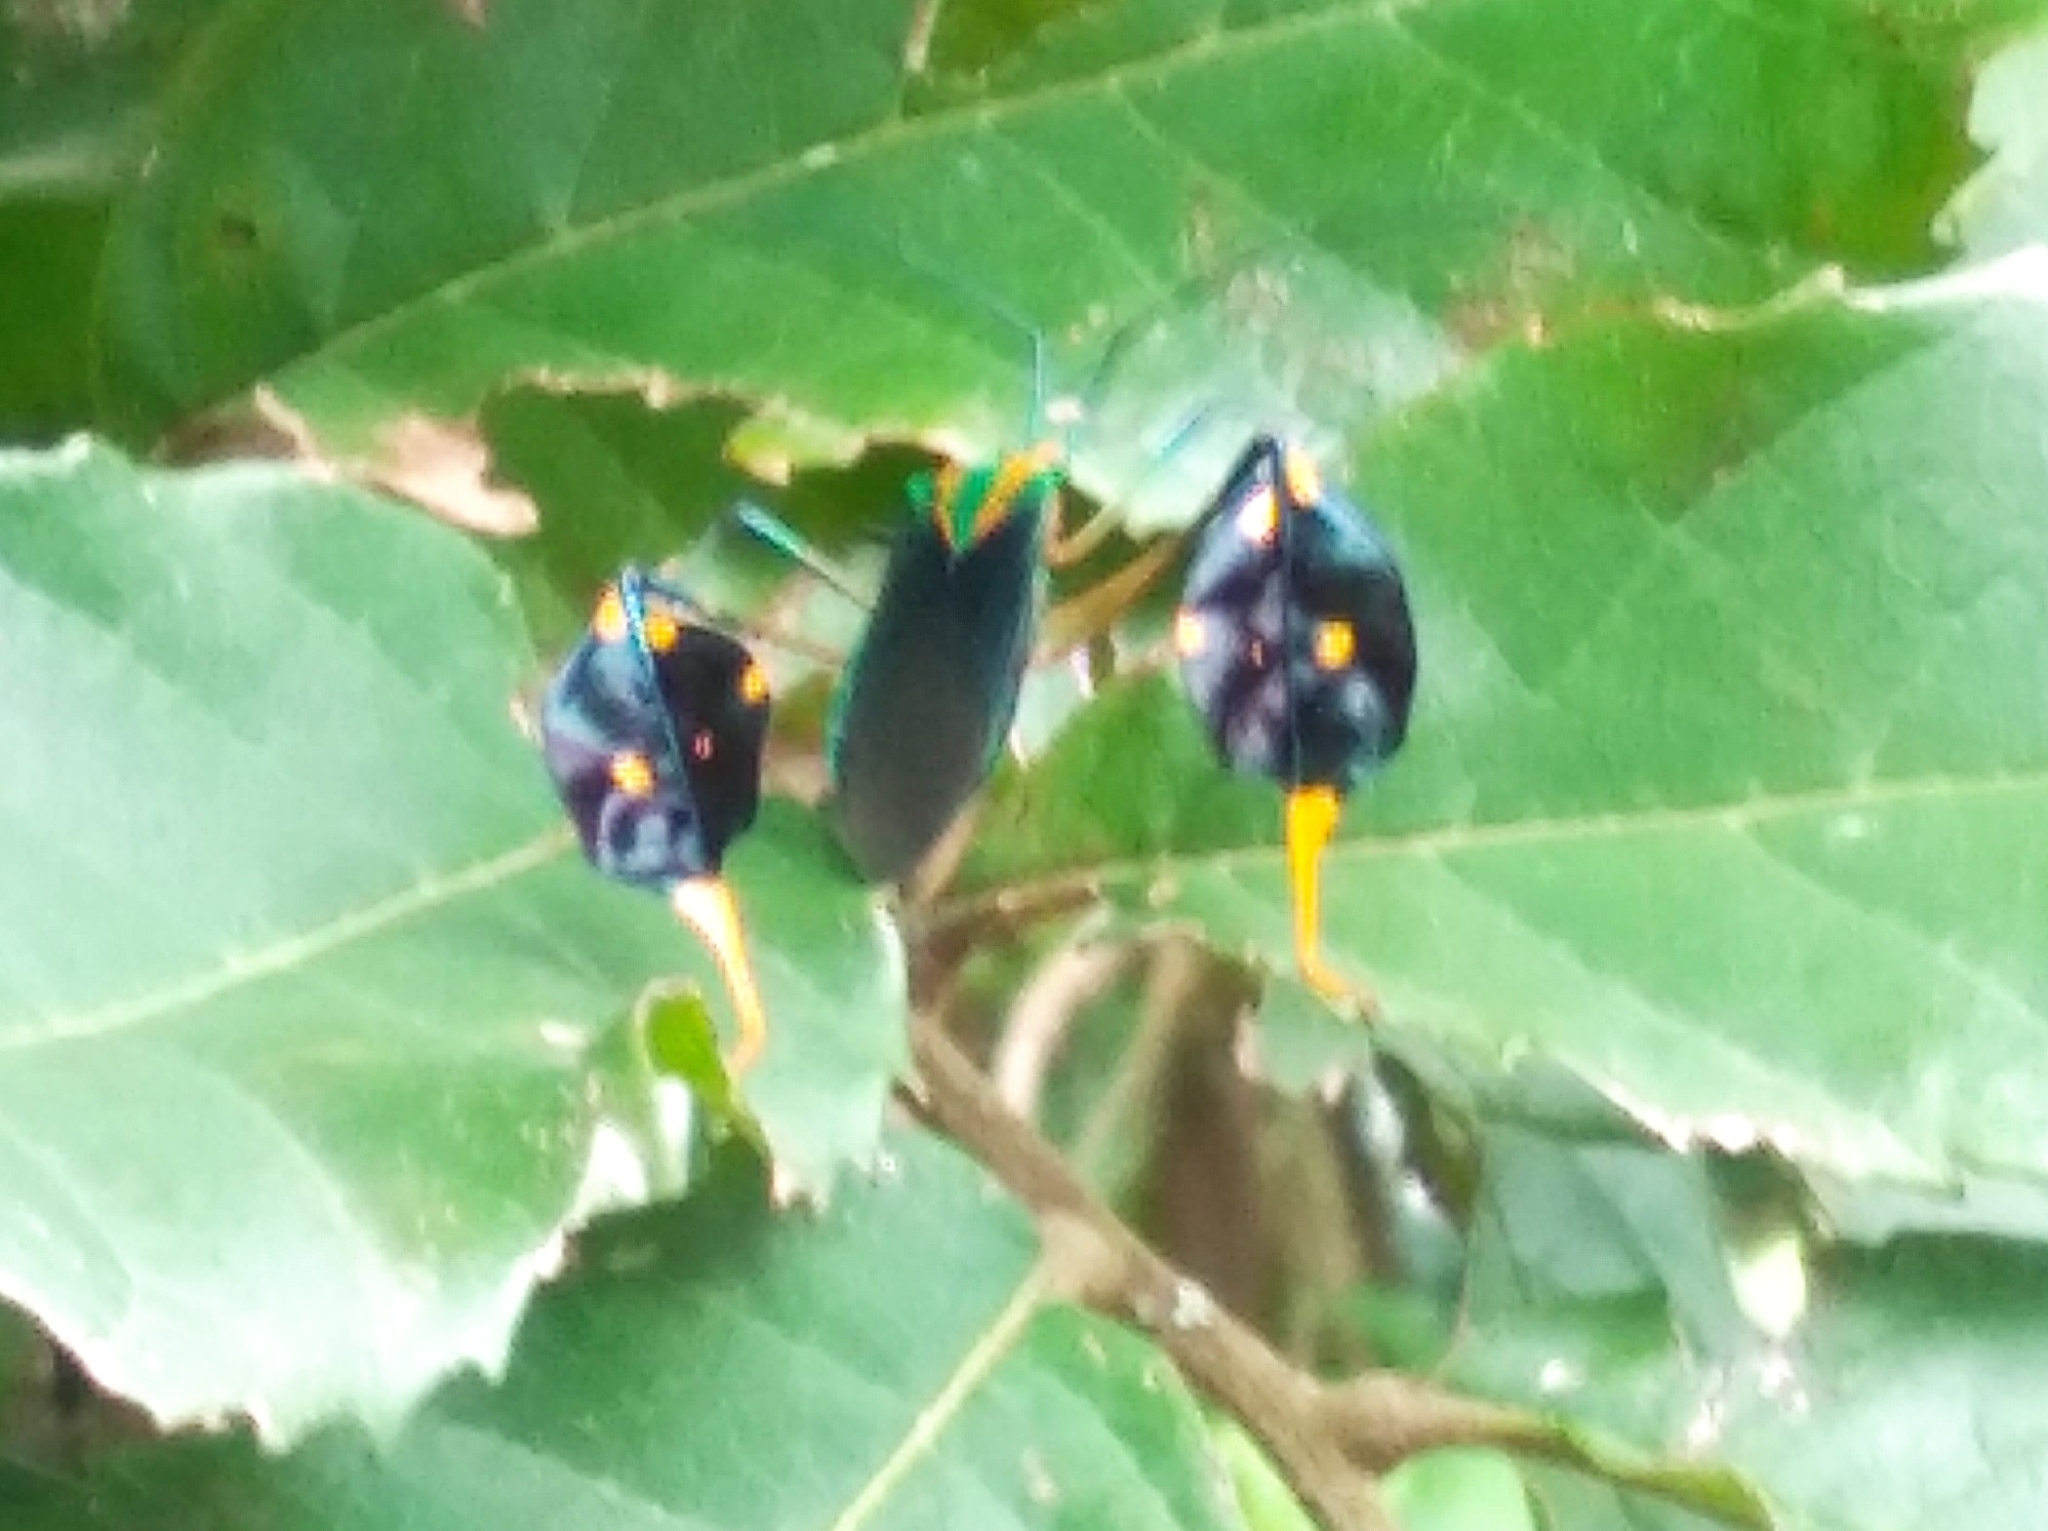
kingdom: Animalia
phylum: Arthropoda
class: Insecta
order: Hemiptera
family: Coreidae
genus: Diactor
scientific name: Diactor bilineatus
